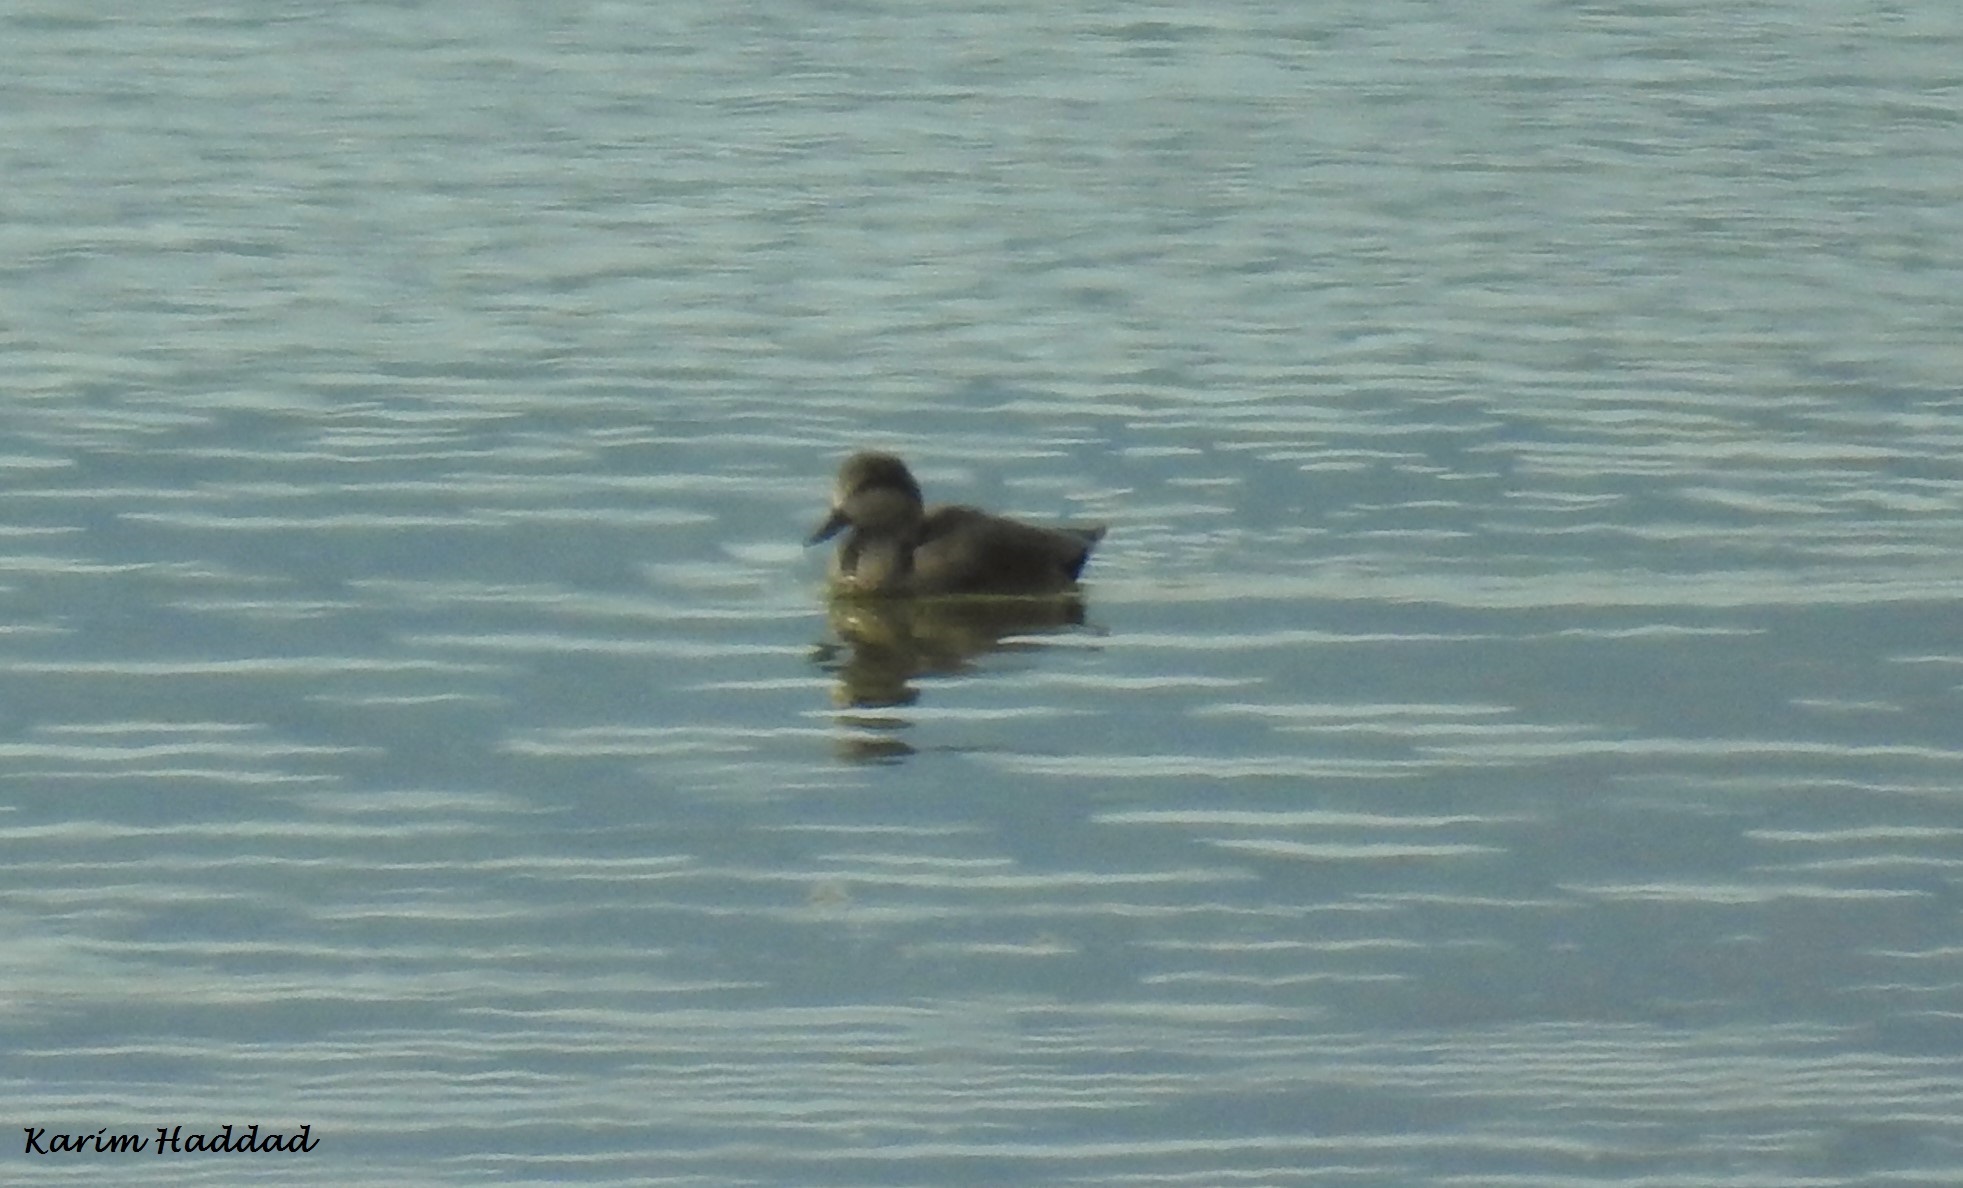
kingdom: Animalia
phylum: Chordata
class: Aves
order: Anseriformes
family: Anatidae
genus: Mareca
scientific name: Mareca strepera
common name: Gadwall
